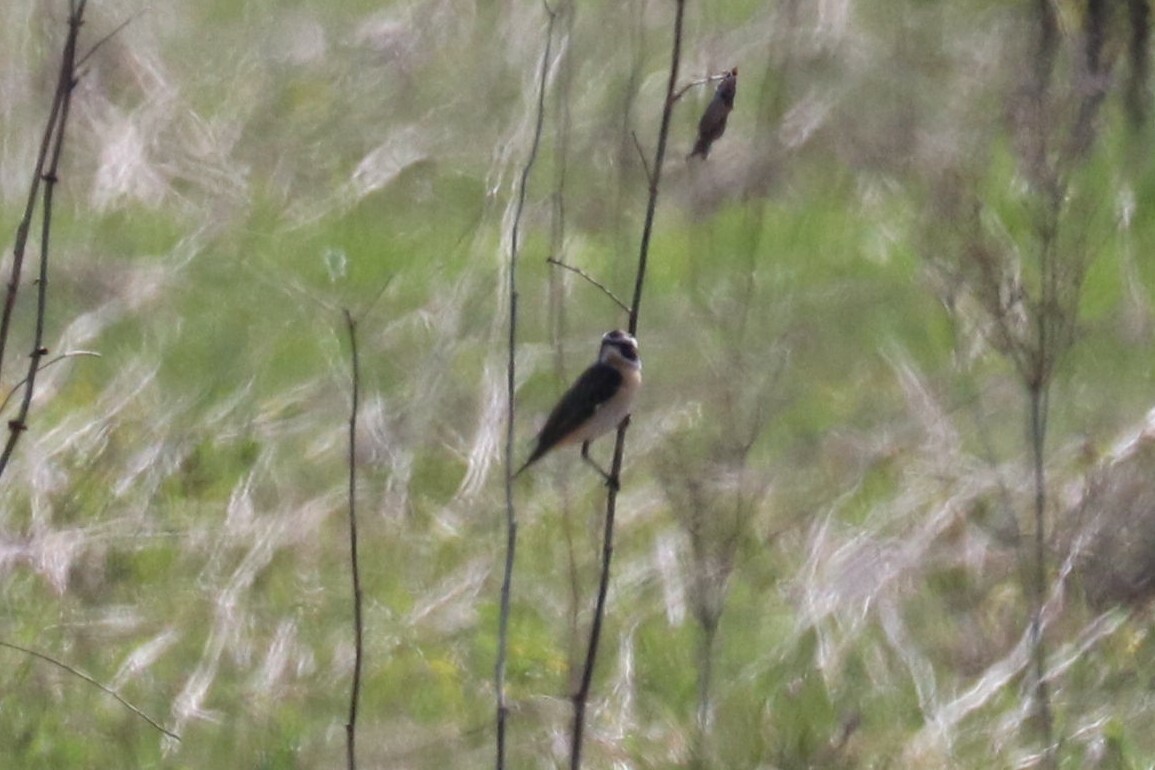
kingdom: Animalia
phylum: Chordata
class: Aves
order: Passeriformes
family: Muscicapidae
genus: Saxicola
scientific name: Saxicola rubetra
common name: Whinchat
